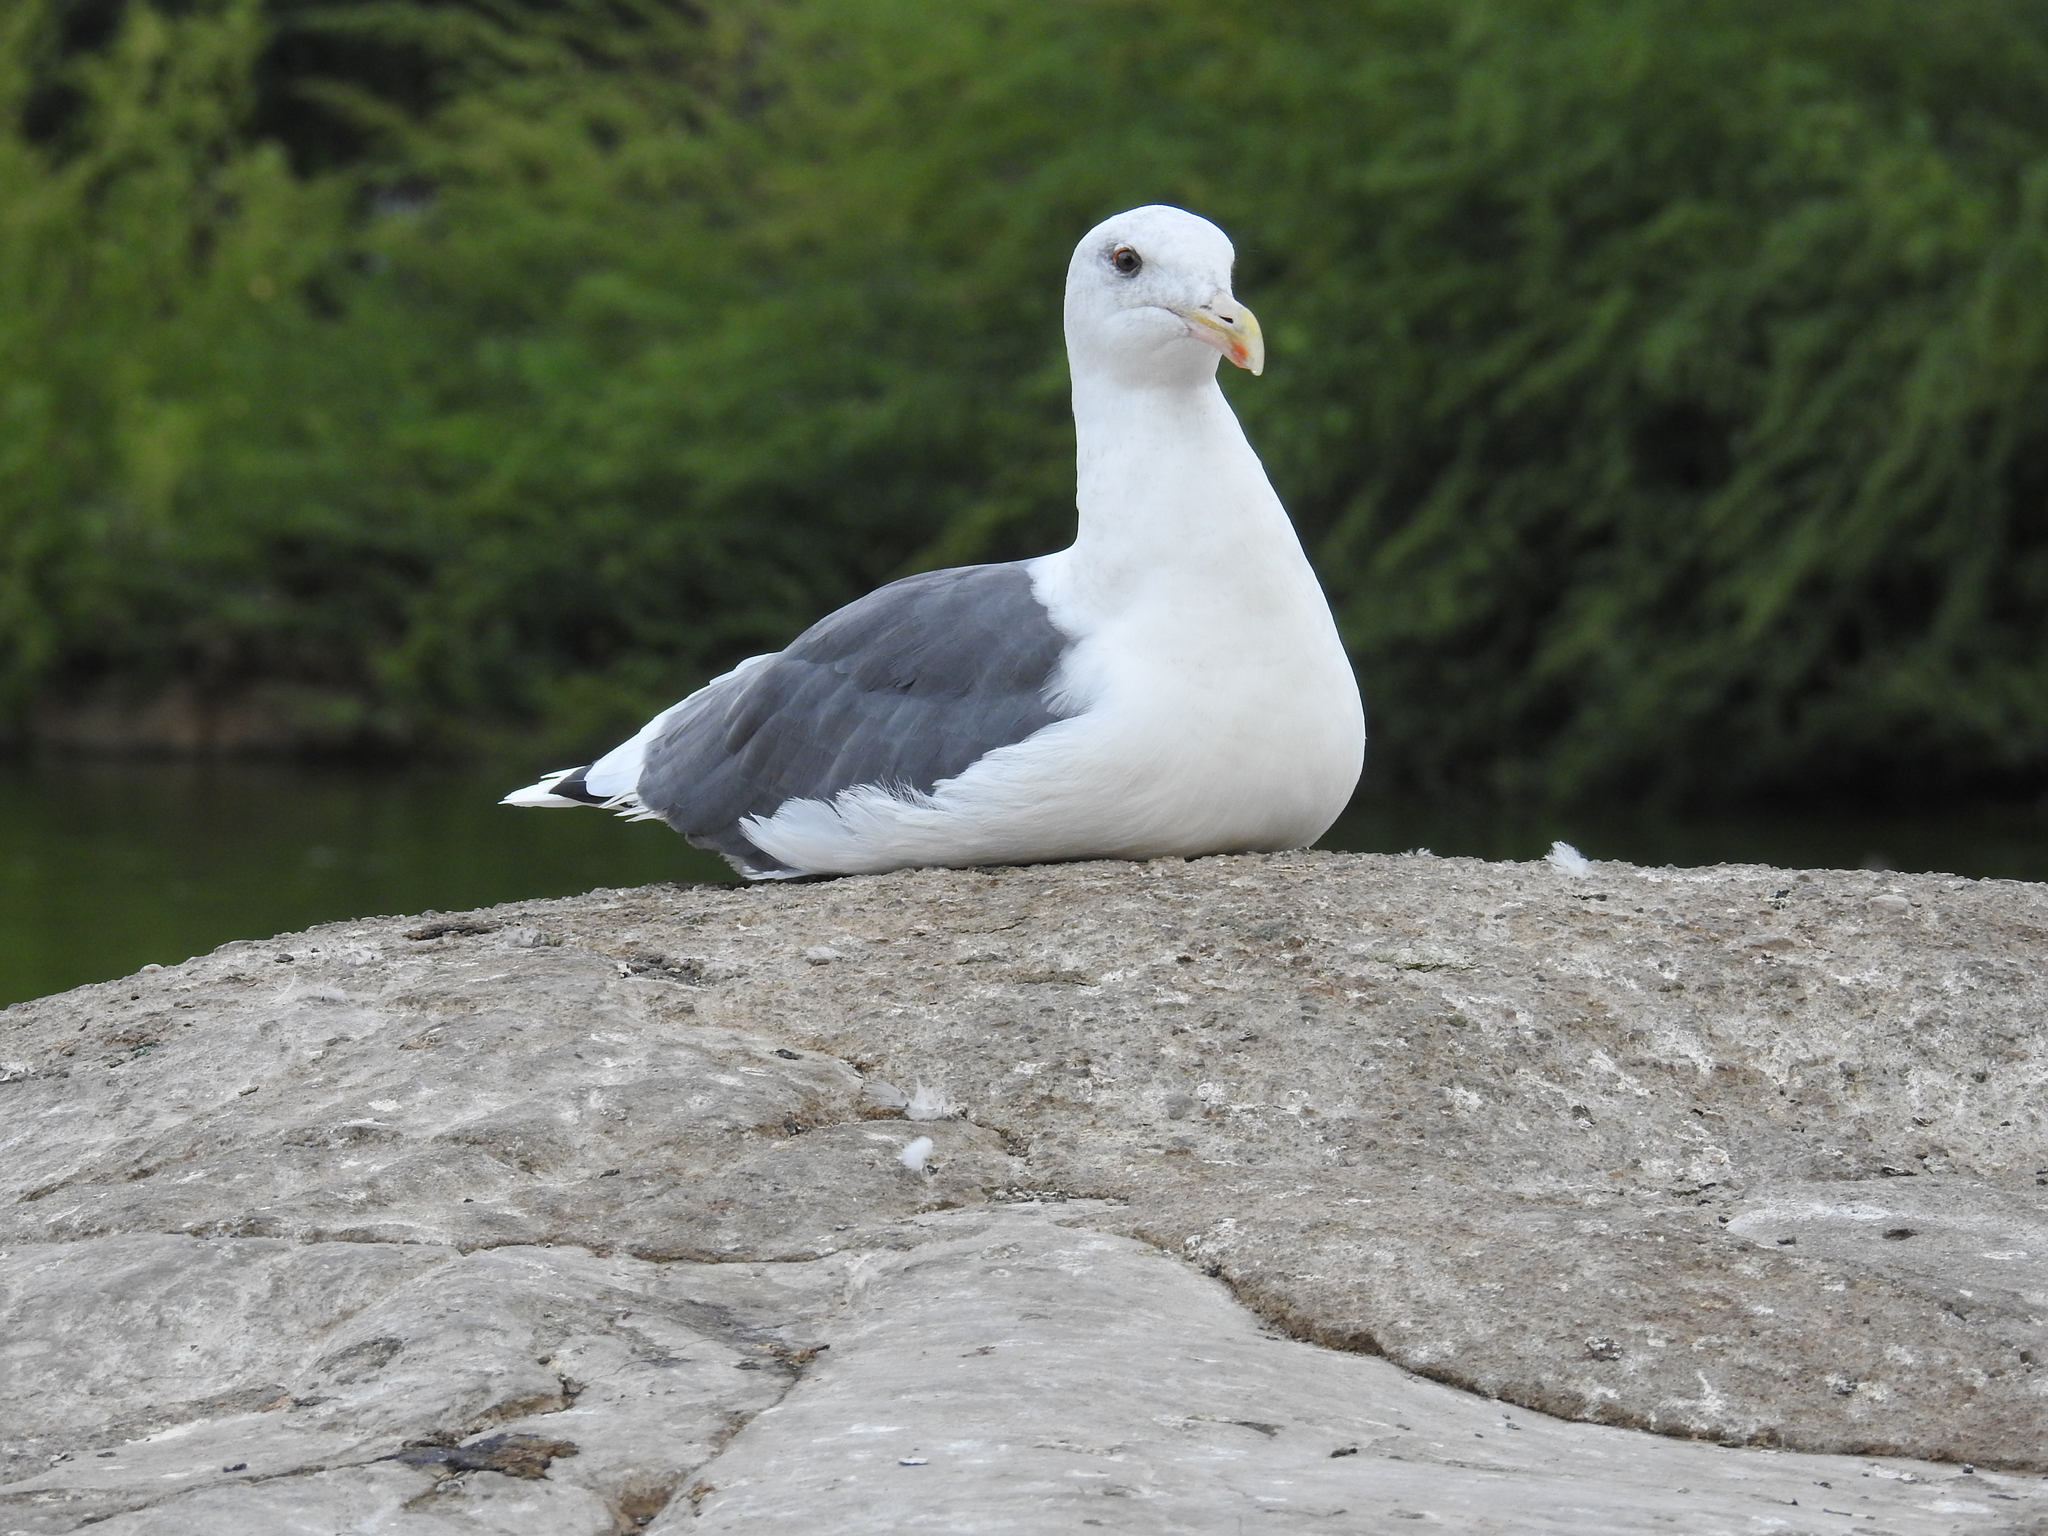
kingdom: Animalia
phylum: Chordata
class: Aves
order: Charadriiformes
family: Laridae
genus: Larus
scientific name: Larus occidentalis
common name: Western gull
